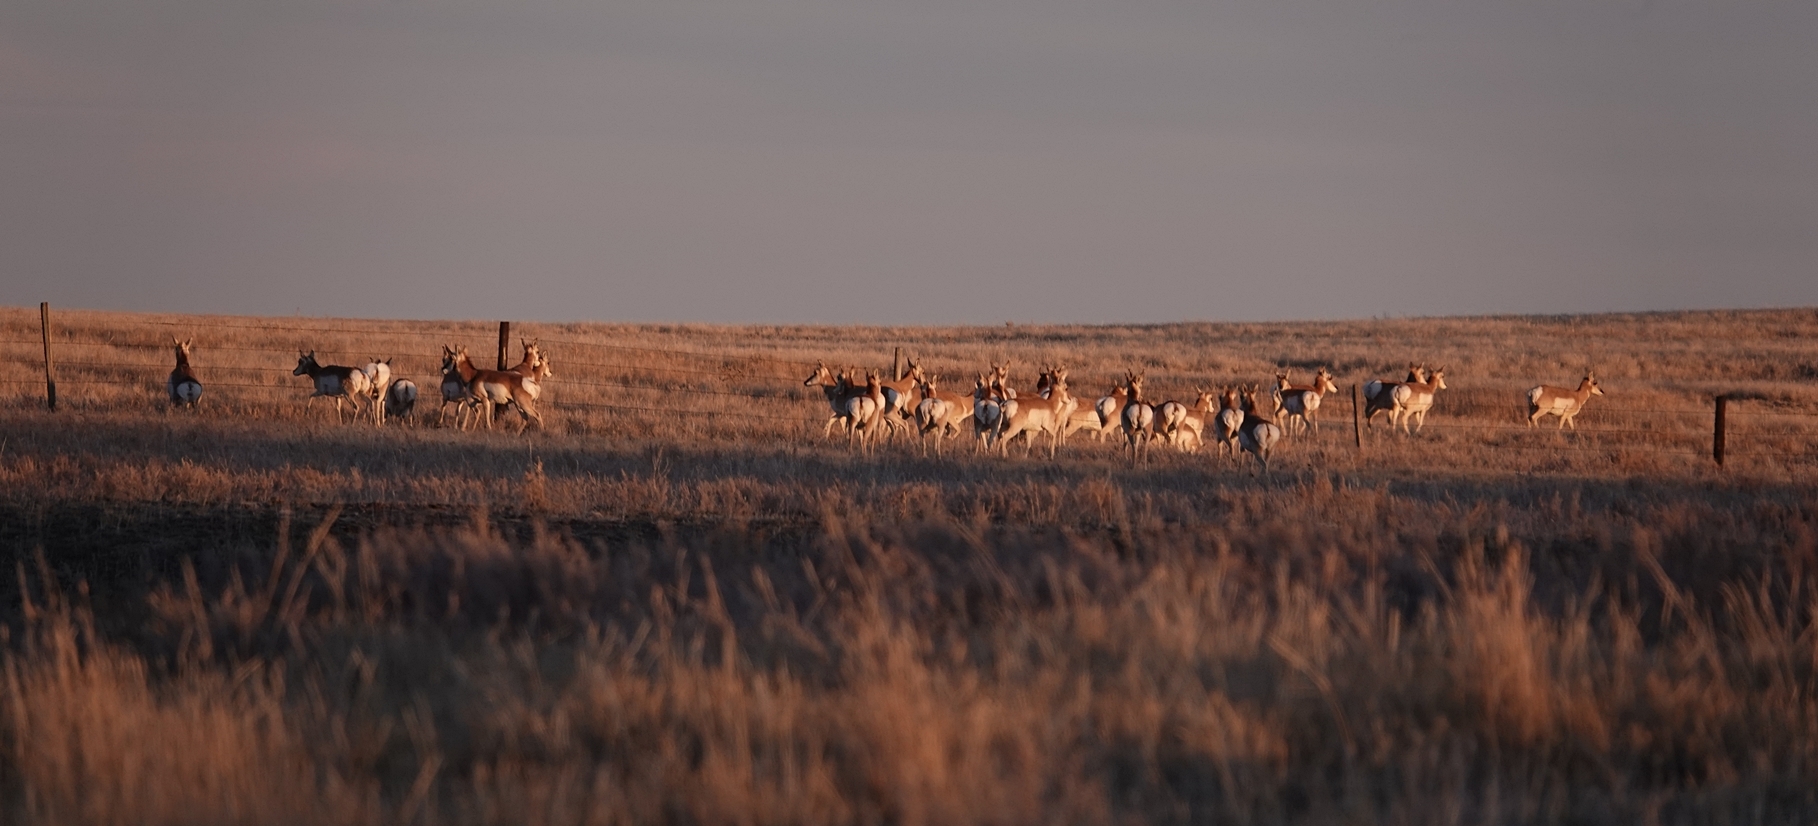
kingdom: Animalia
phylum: Chordata
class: Mammalia
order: Artiodactyla
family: Antilocapridae
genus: Antilocapra
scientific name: Antilocapra americana
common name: Pronghorn
